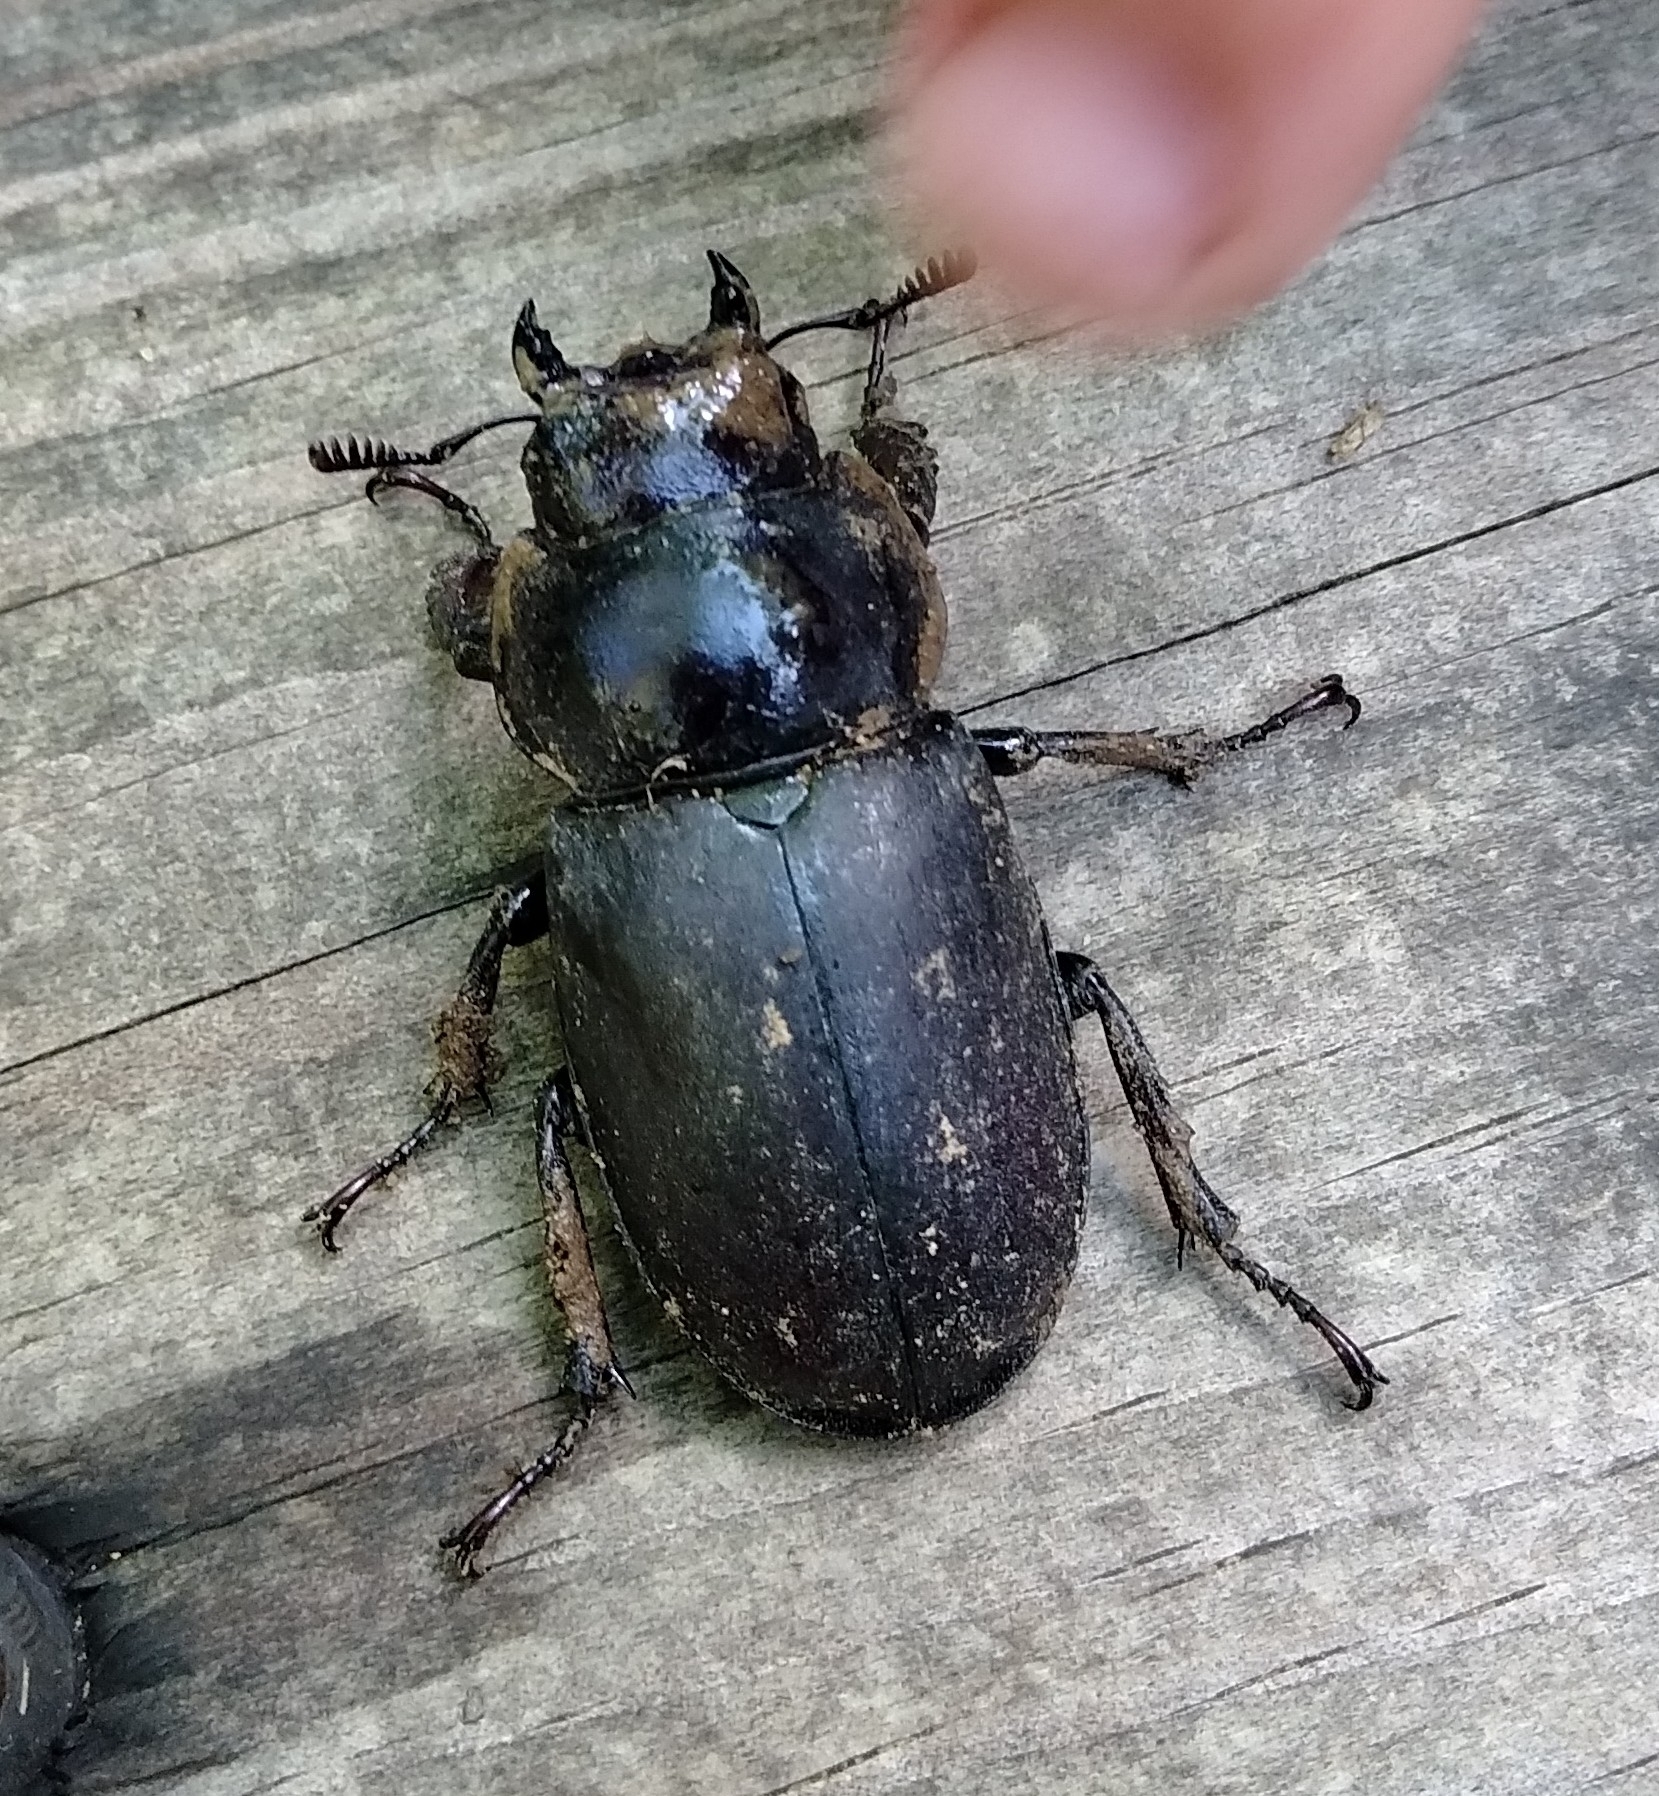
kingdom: Animalia
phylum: Arthropoda
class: Insecta
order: Coleoptera
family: Lucanidae
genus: Lucanus
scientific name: Lucanus tetraodon
